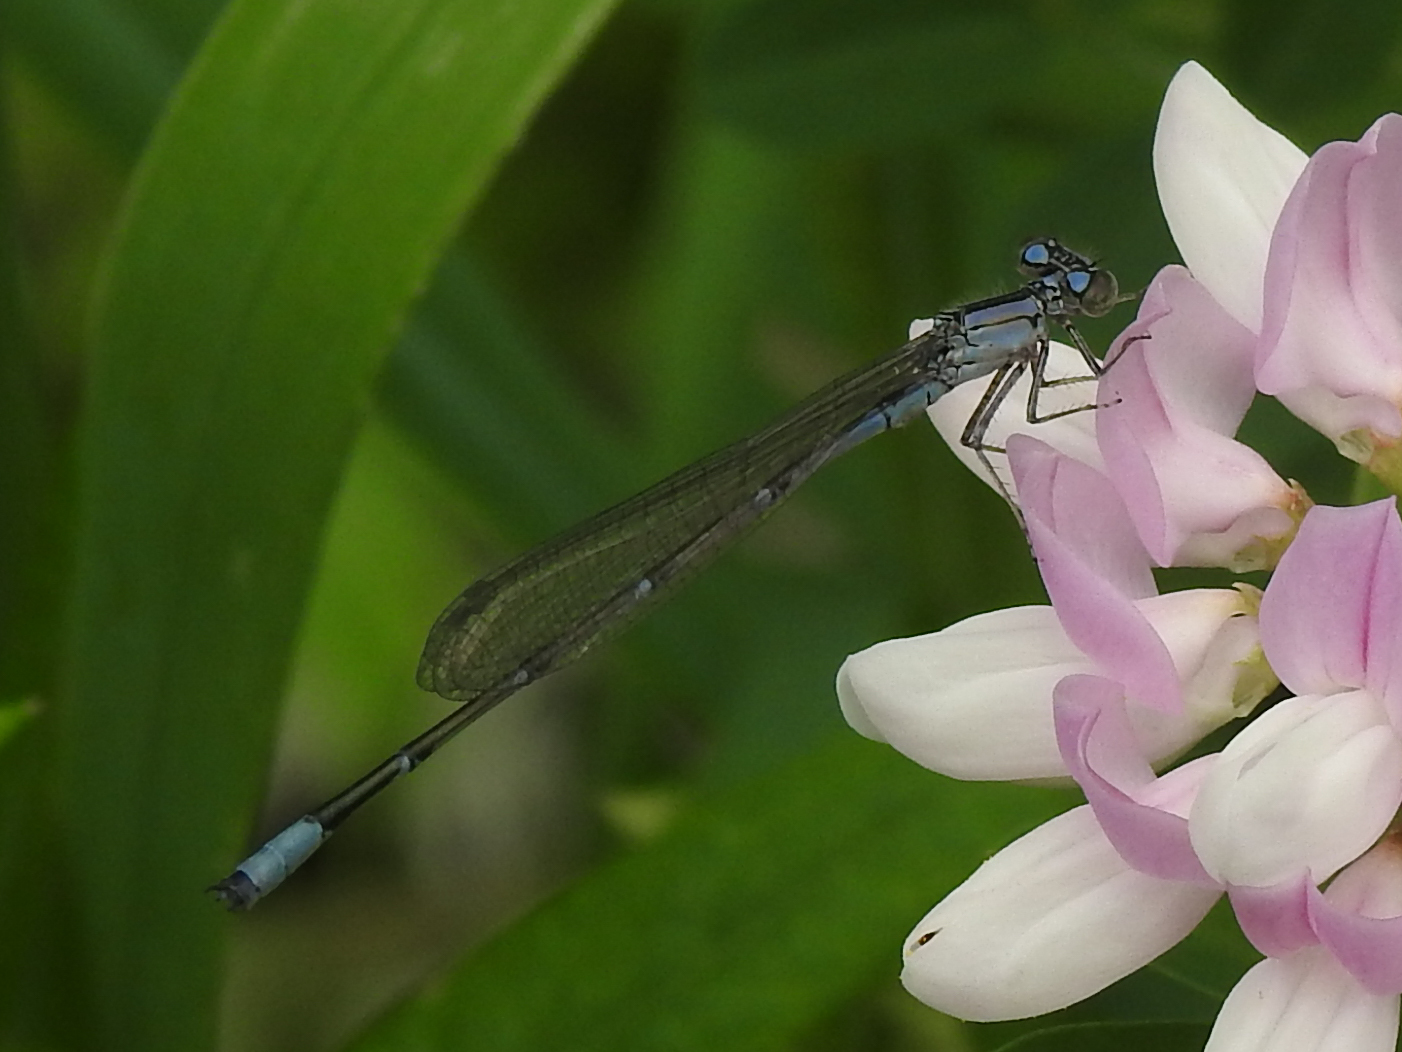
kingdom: Animalia
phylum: Arthropoda
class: Insecta
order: Odonata
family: Coenagrionidae
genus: Enallagma
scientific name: Enallagma traviatum
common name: Slender bluet
